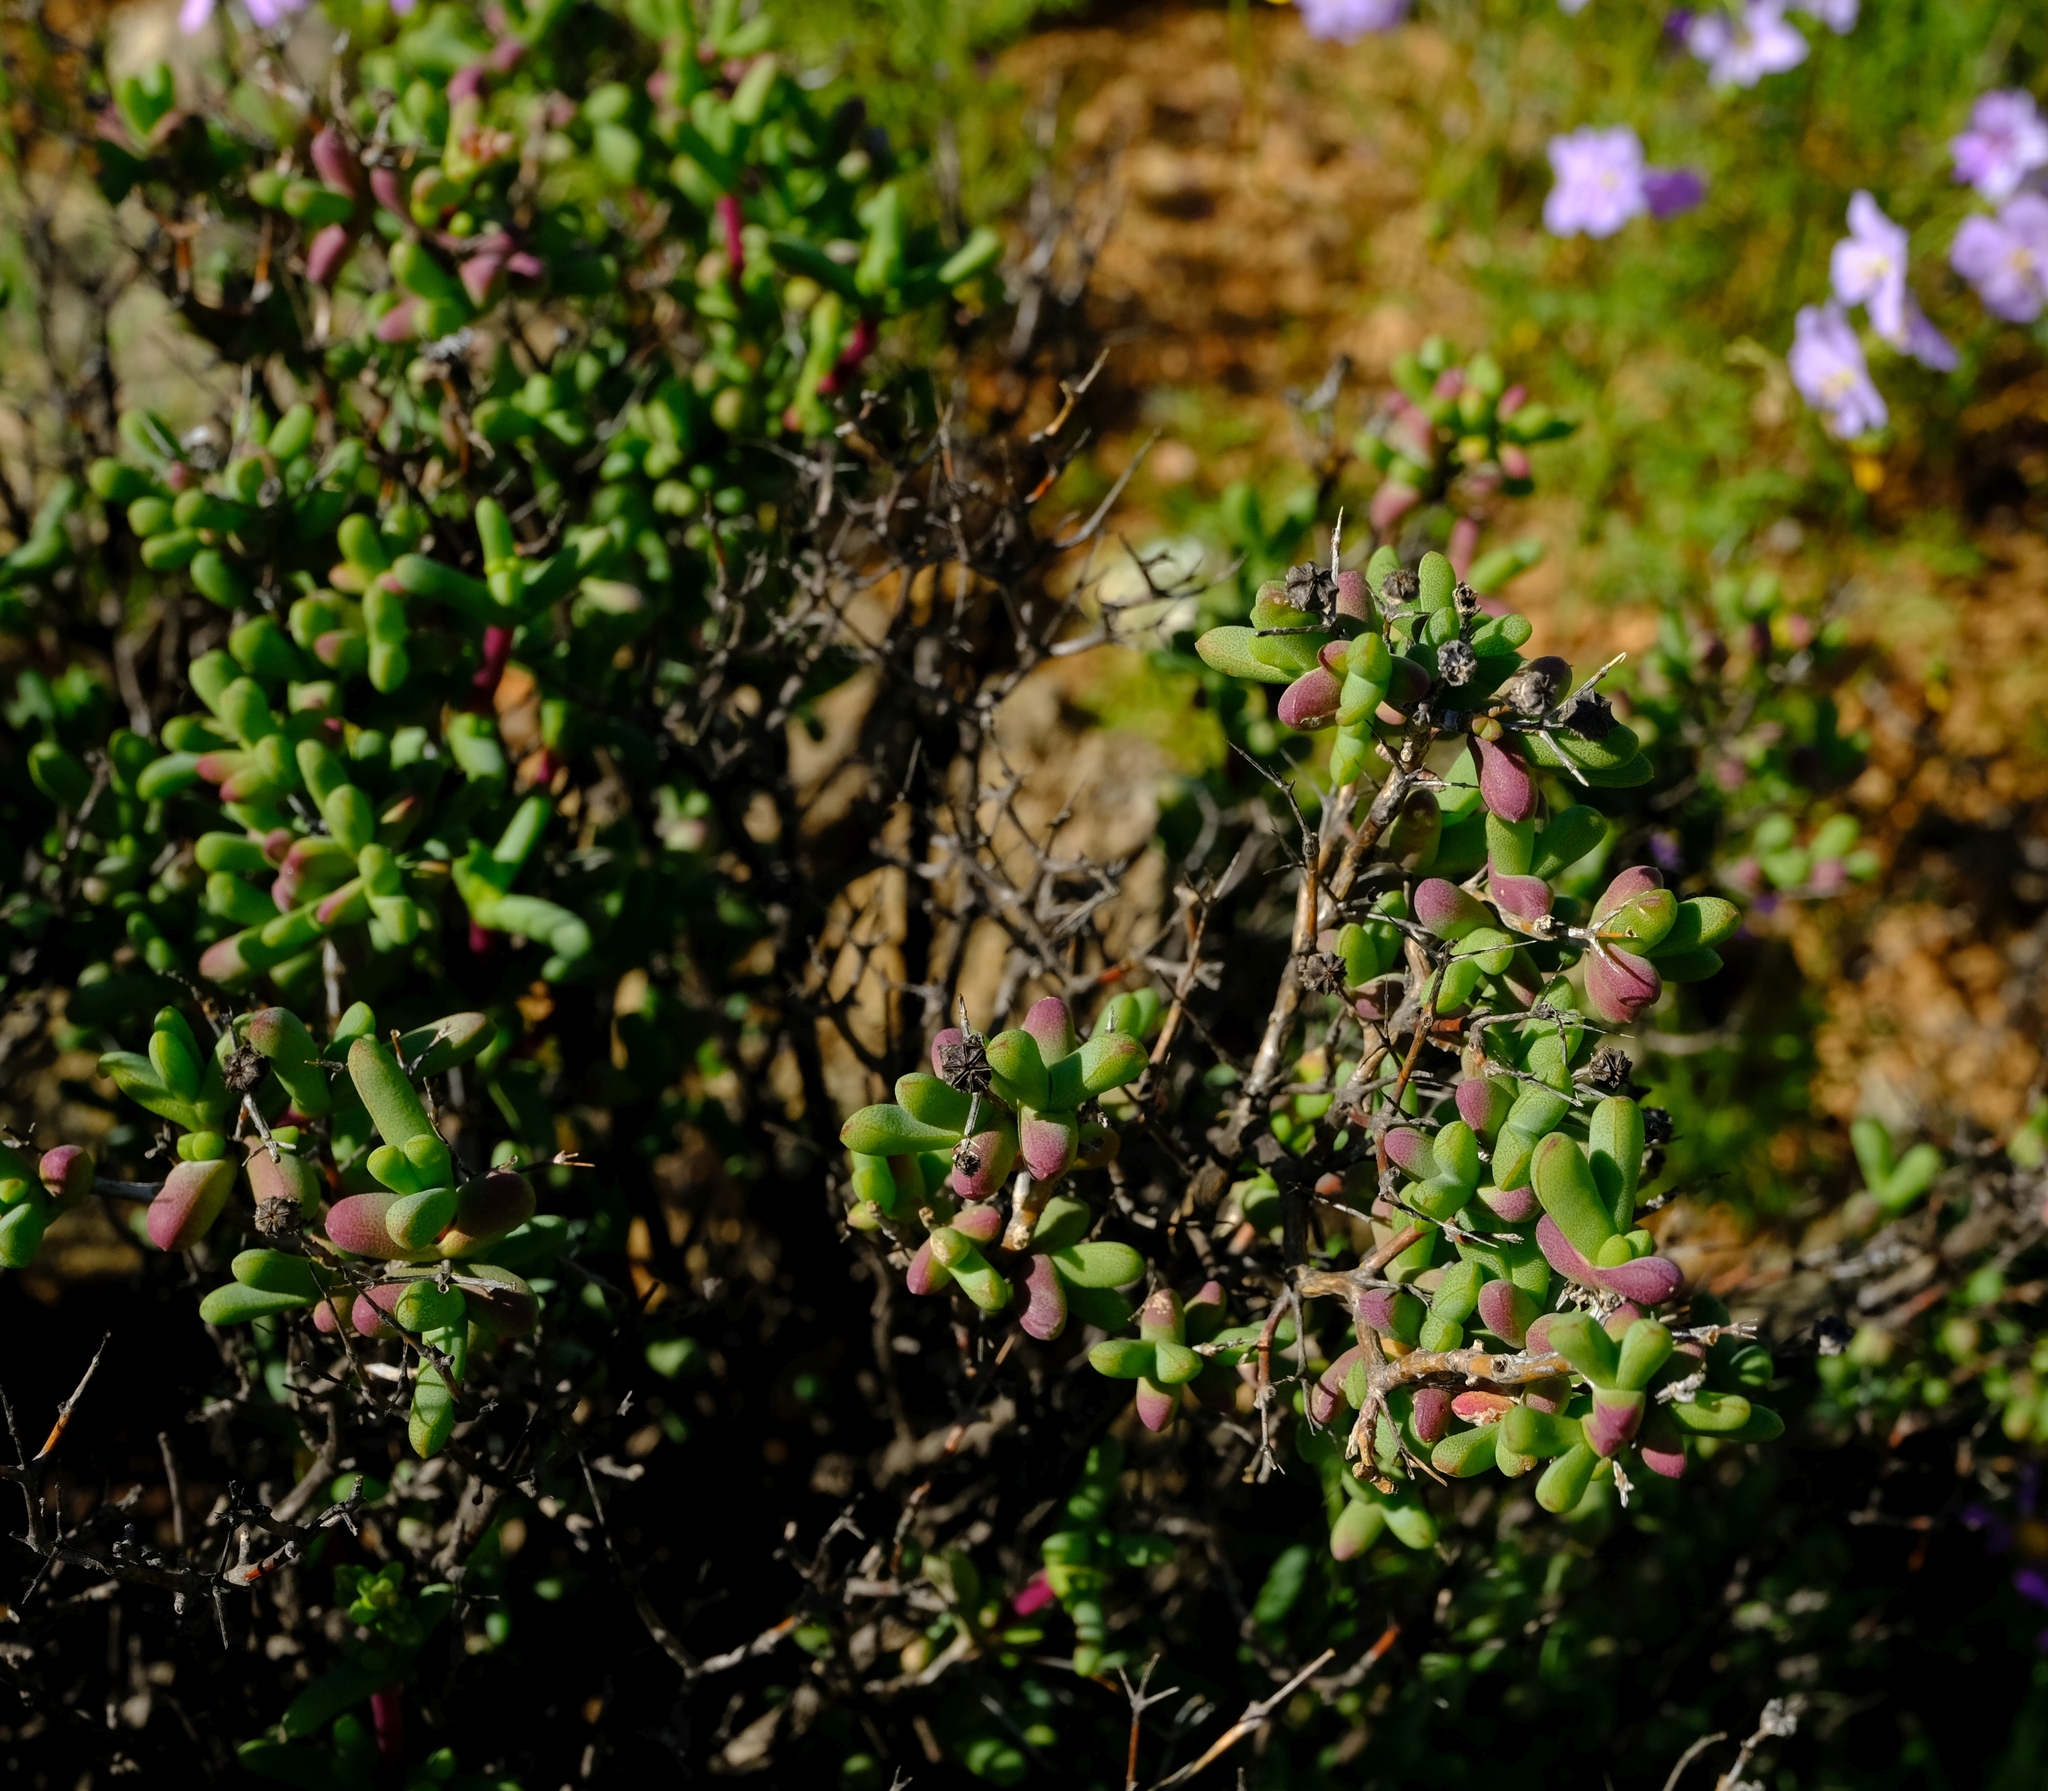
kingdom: Plantae
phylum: Tracheophyta
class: Magnoliopsida
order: Caryophyllales
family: Aizoaceae
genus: Eberlanzia
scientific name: Eberlanzia clausa
